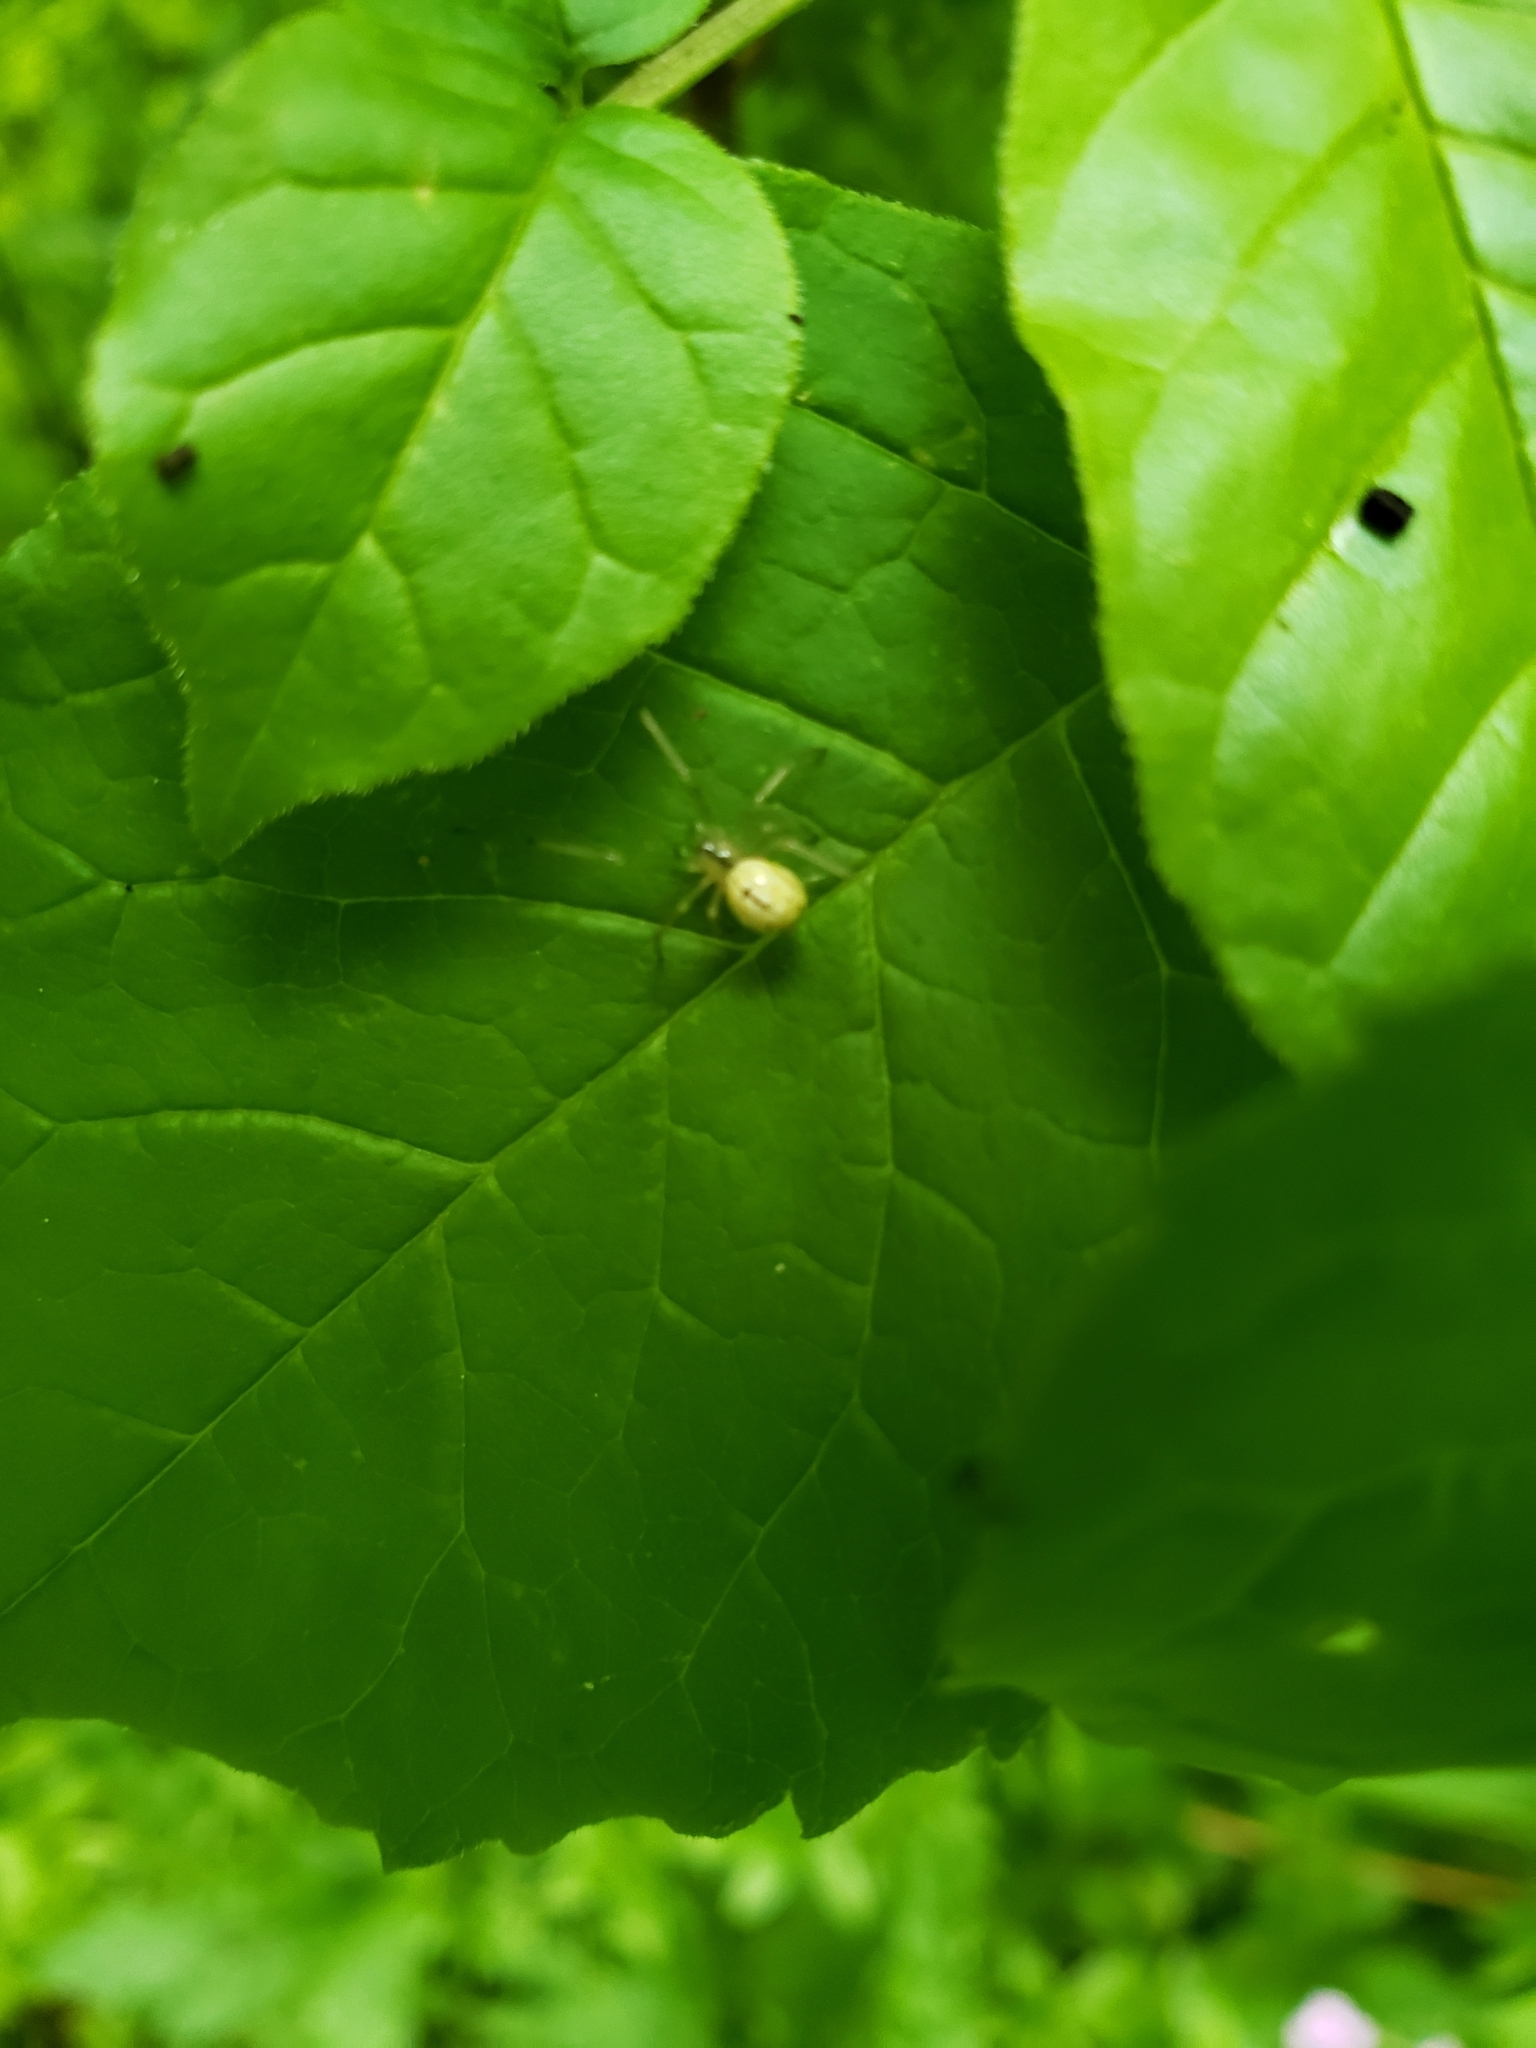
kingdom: Animalia
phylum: Arthropoda
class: Arachnida
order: Araneae
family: Theridiidae
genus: Enoplognatha
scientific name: Enoplognatha ovata
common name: Common candy-striped spider
